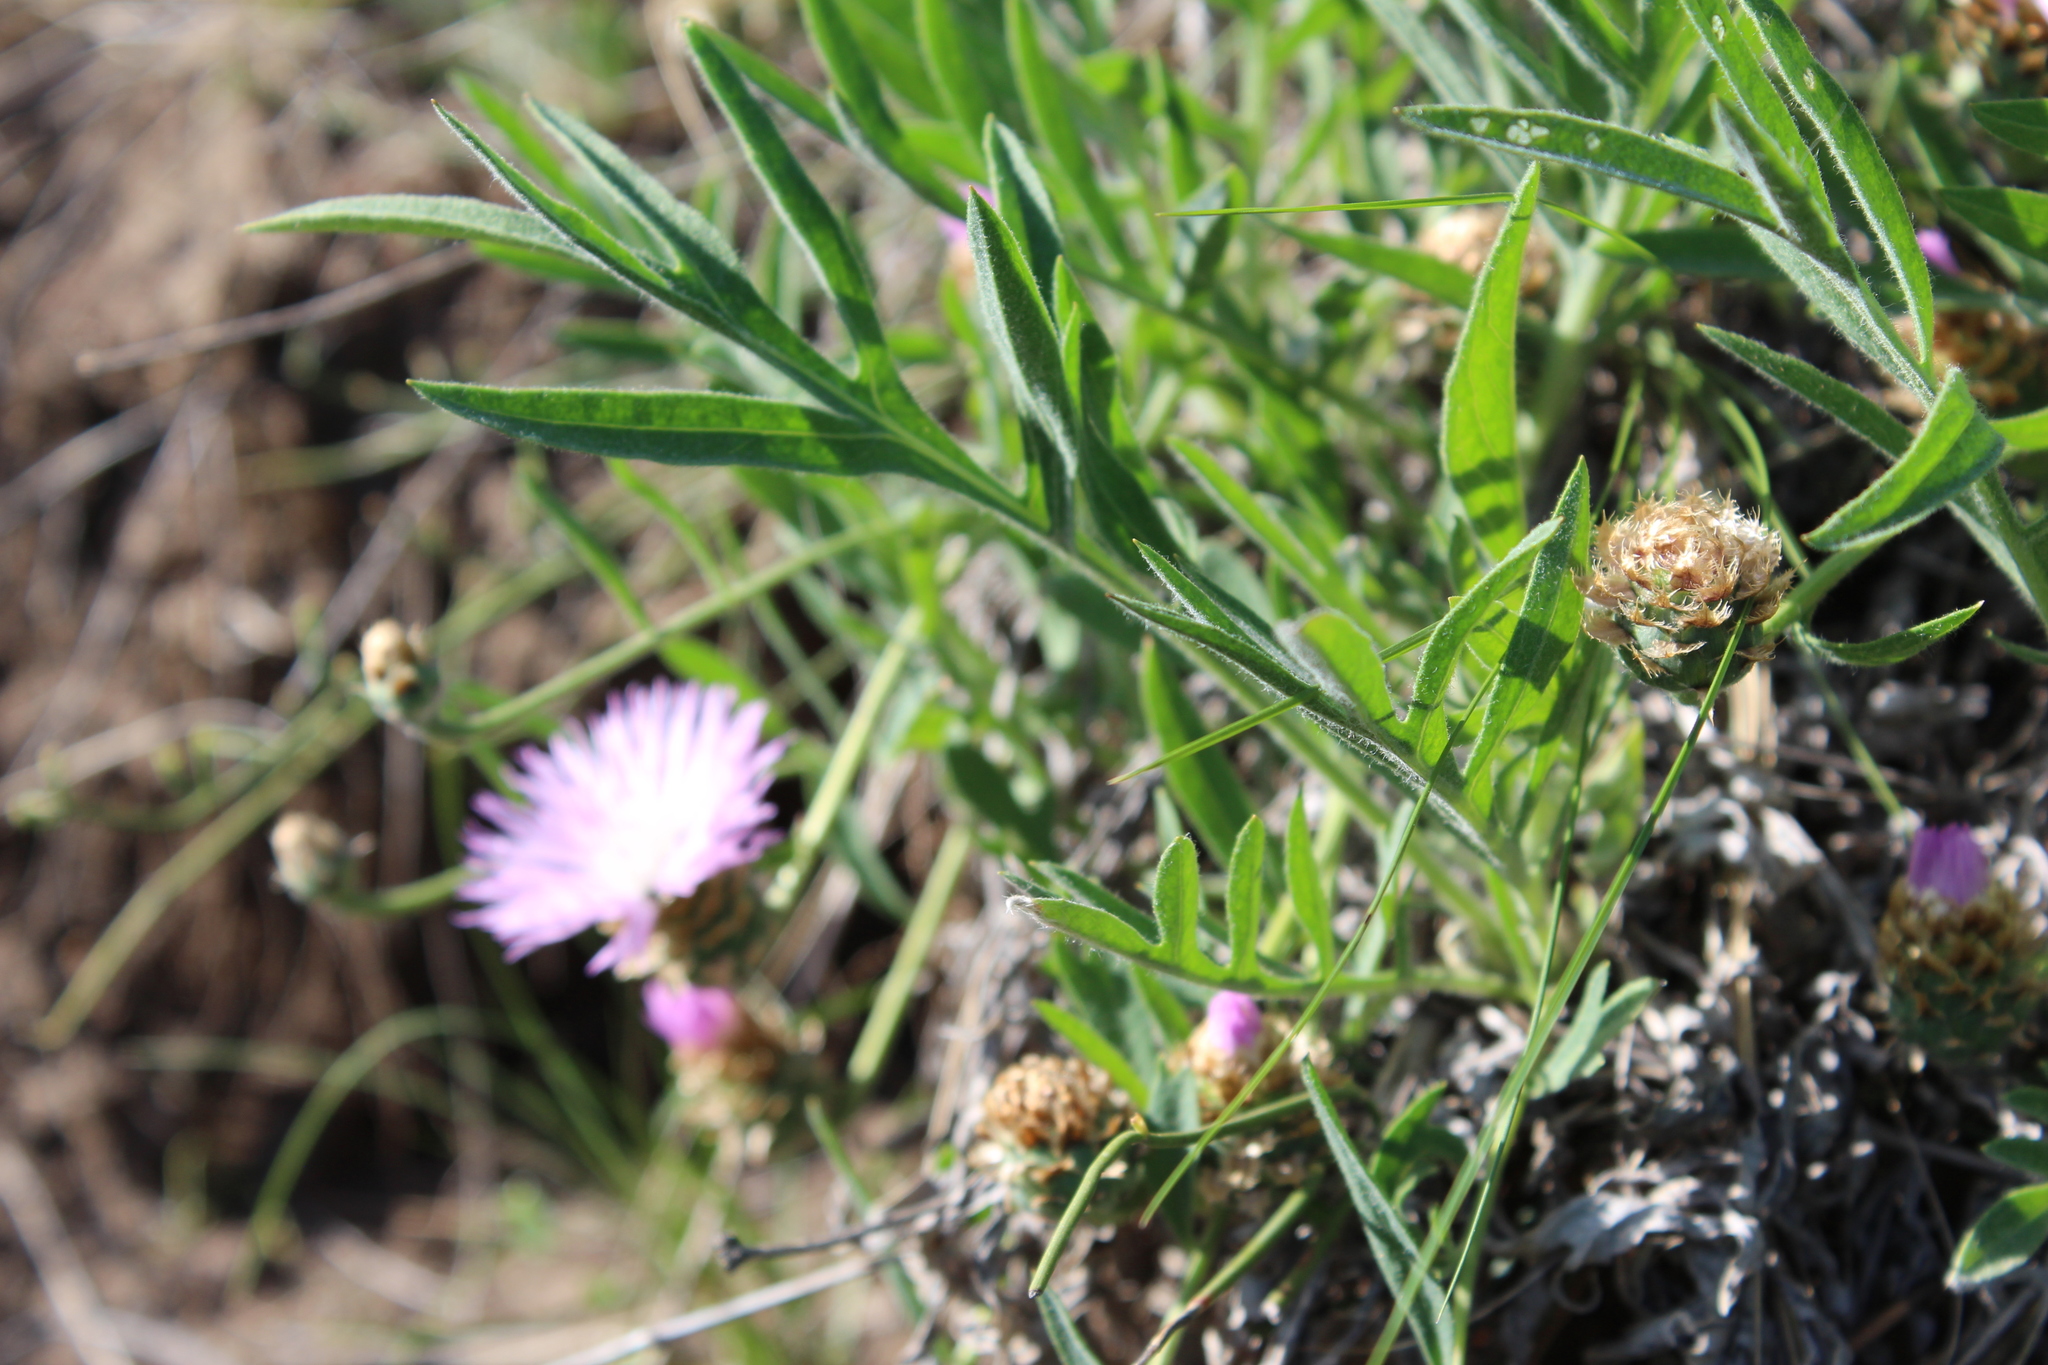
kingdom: Plantae
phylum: Tracheophyta
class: Magnoliopsida
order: Asterales
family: Asteraceae
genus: Psephellus
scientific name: Psephellus marschallianus
